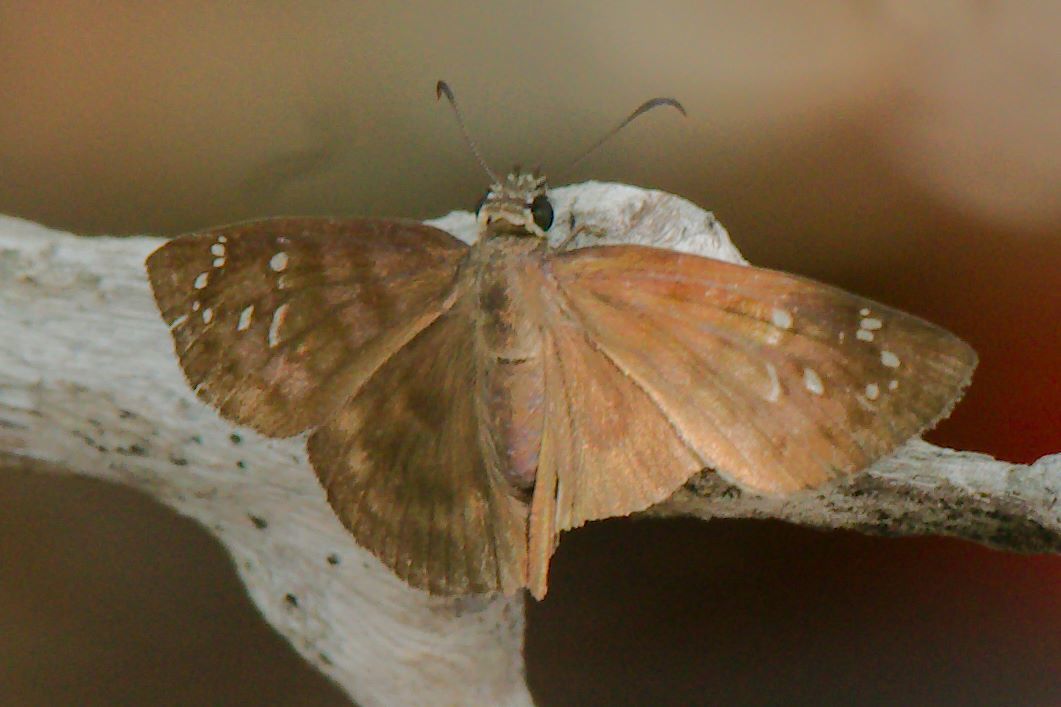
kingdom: Animalia
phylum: Arthropoda
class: Insecta
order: Lepidoptera
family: Hesperiidae
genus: Ephyriades
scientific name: Ephyriades brunnea
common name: Florida duskywing
